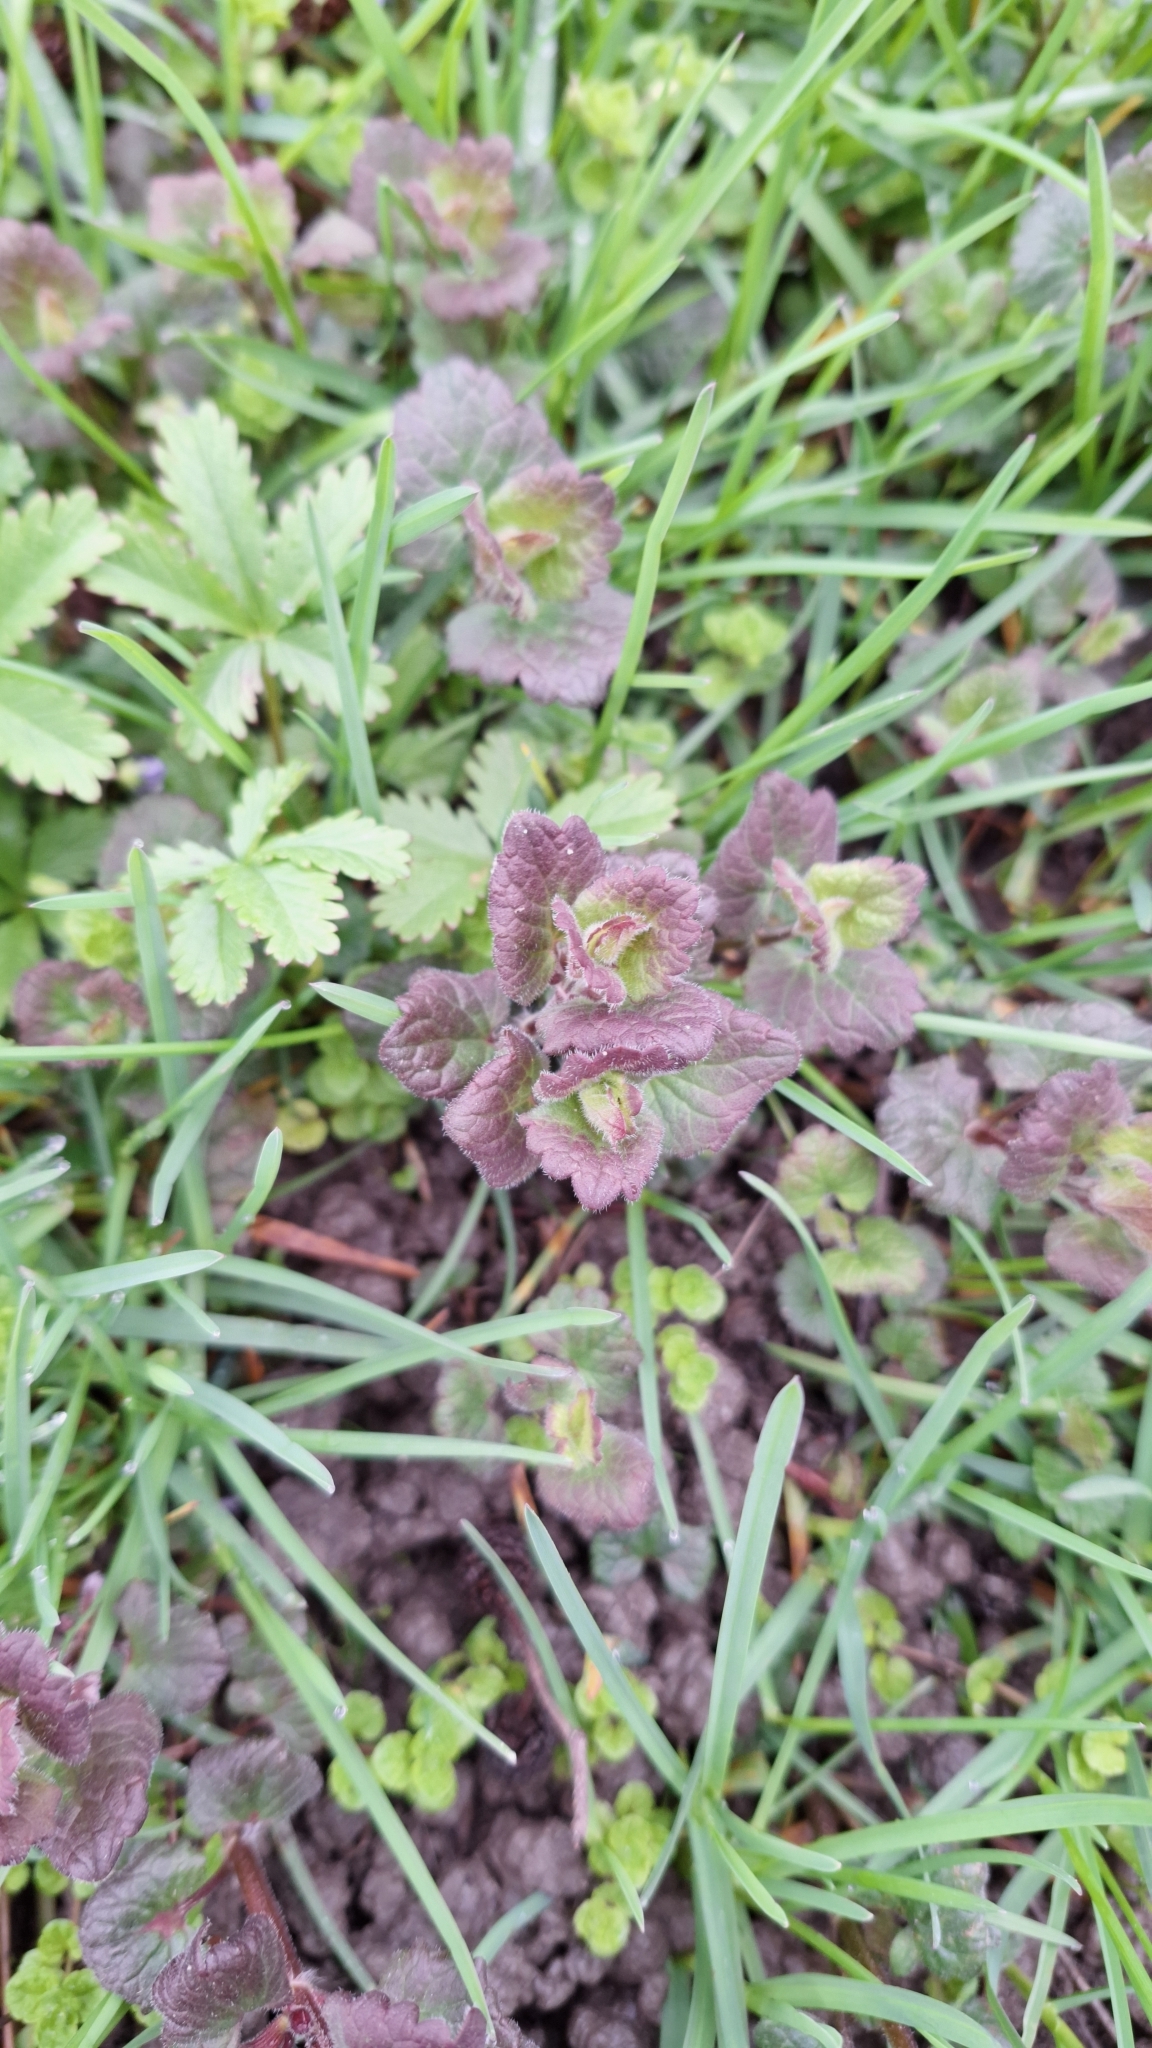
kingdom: Plantae
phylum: Tracheophyta
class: Magnoliopsida
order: Lamiales
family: Lamiaceae
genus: Glechoma
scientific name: Glechoma hederacea
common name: Ground ivy
